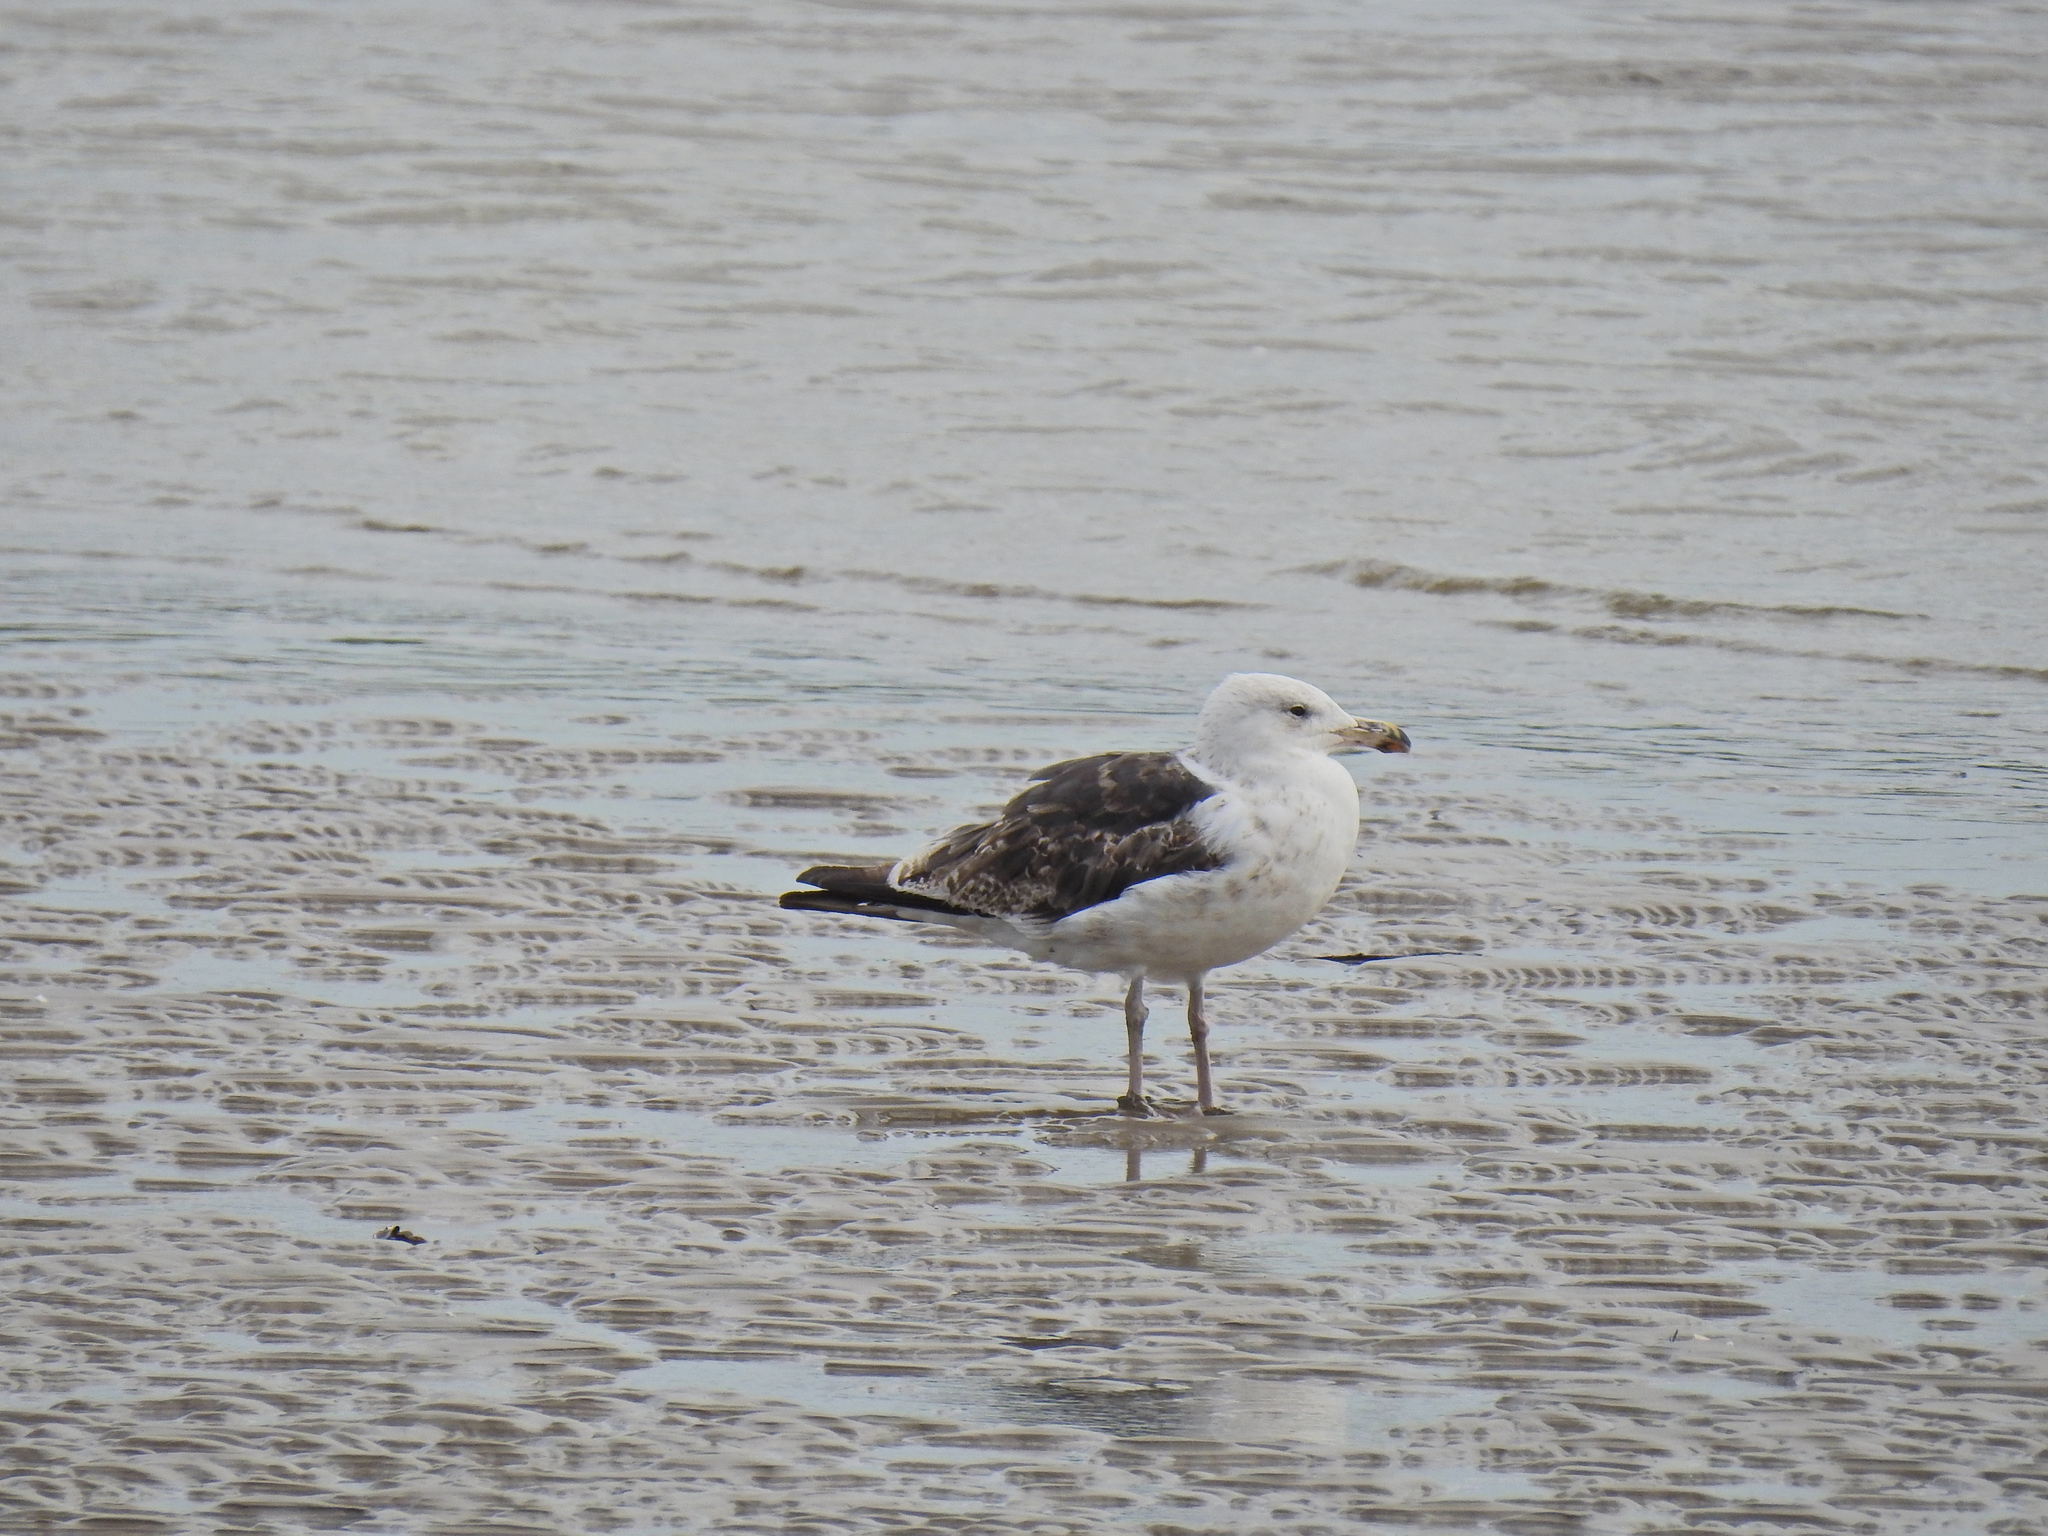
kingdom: Animalia
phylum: Chordata
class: Aves
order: Charadriiformes
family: Laridae
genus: Larus
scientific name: Larus marinus
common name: Great black-backed gull
